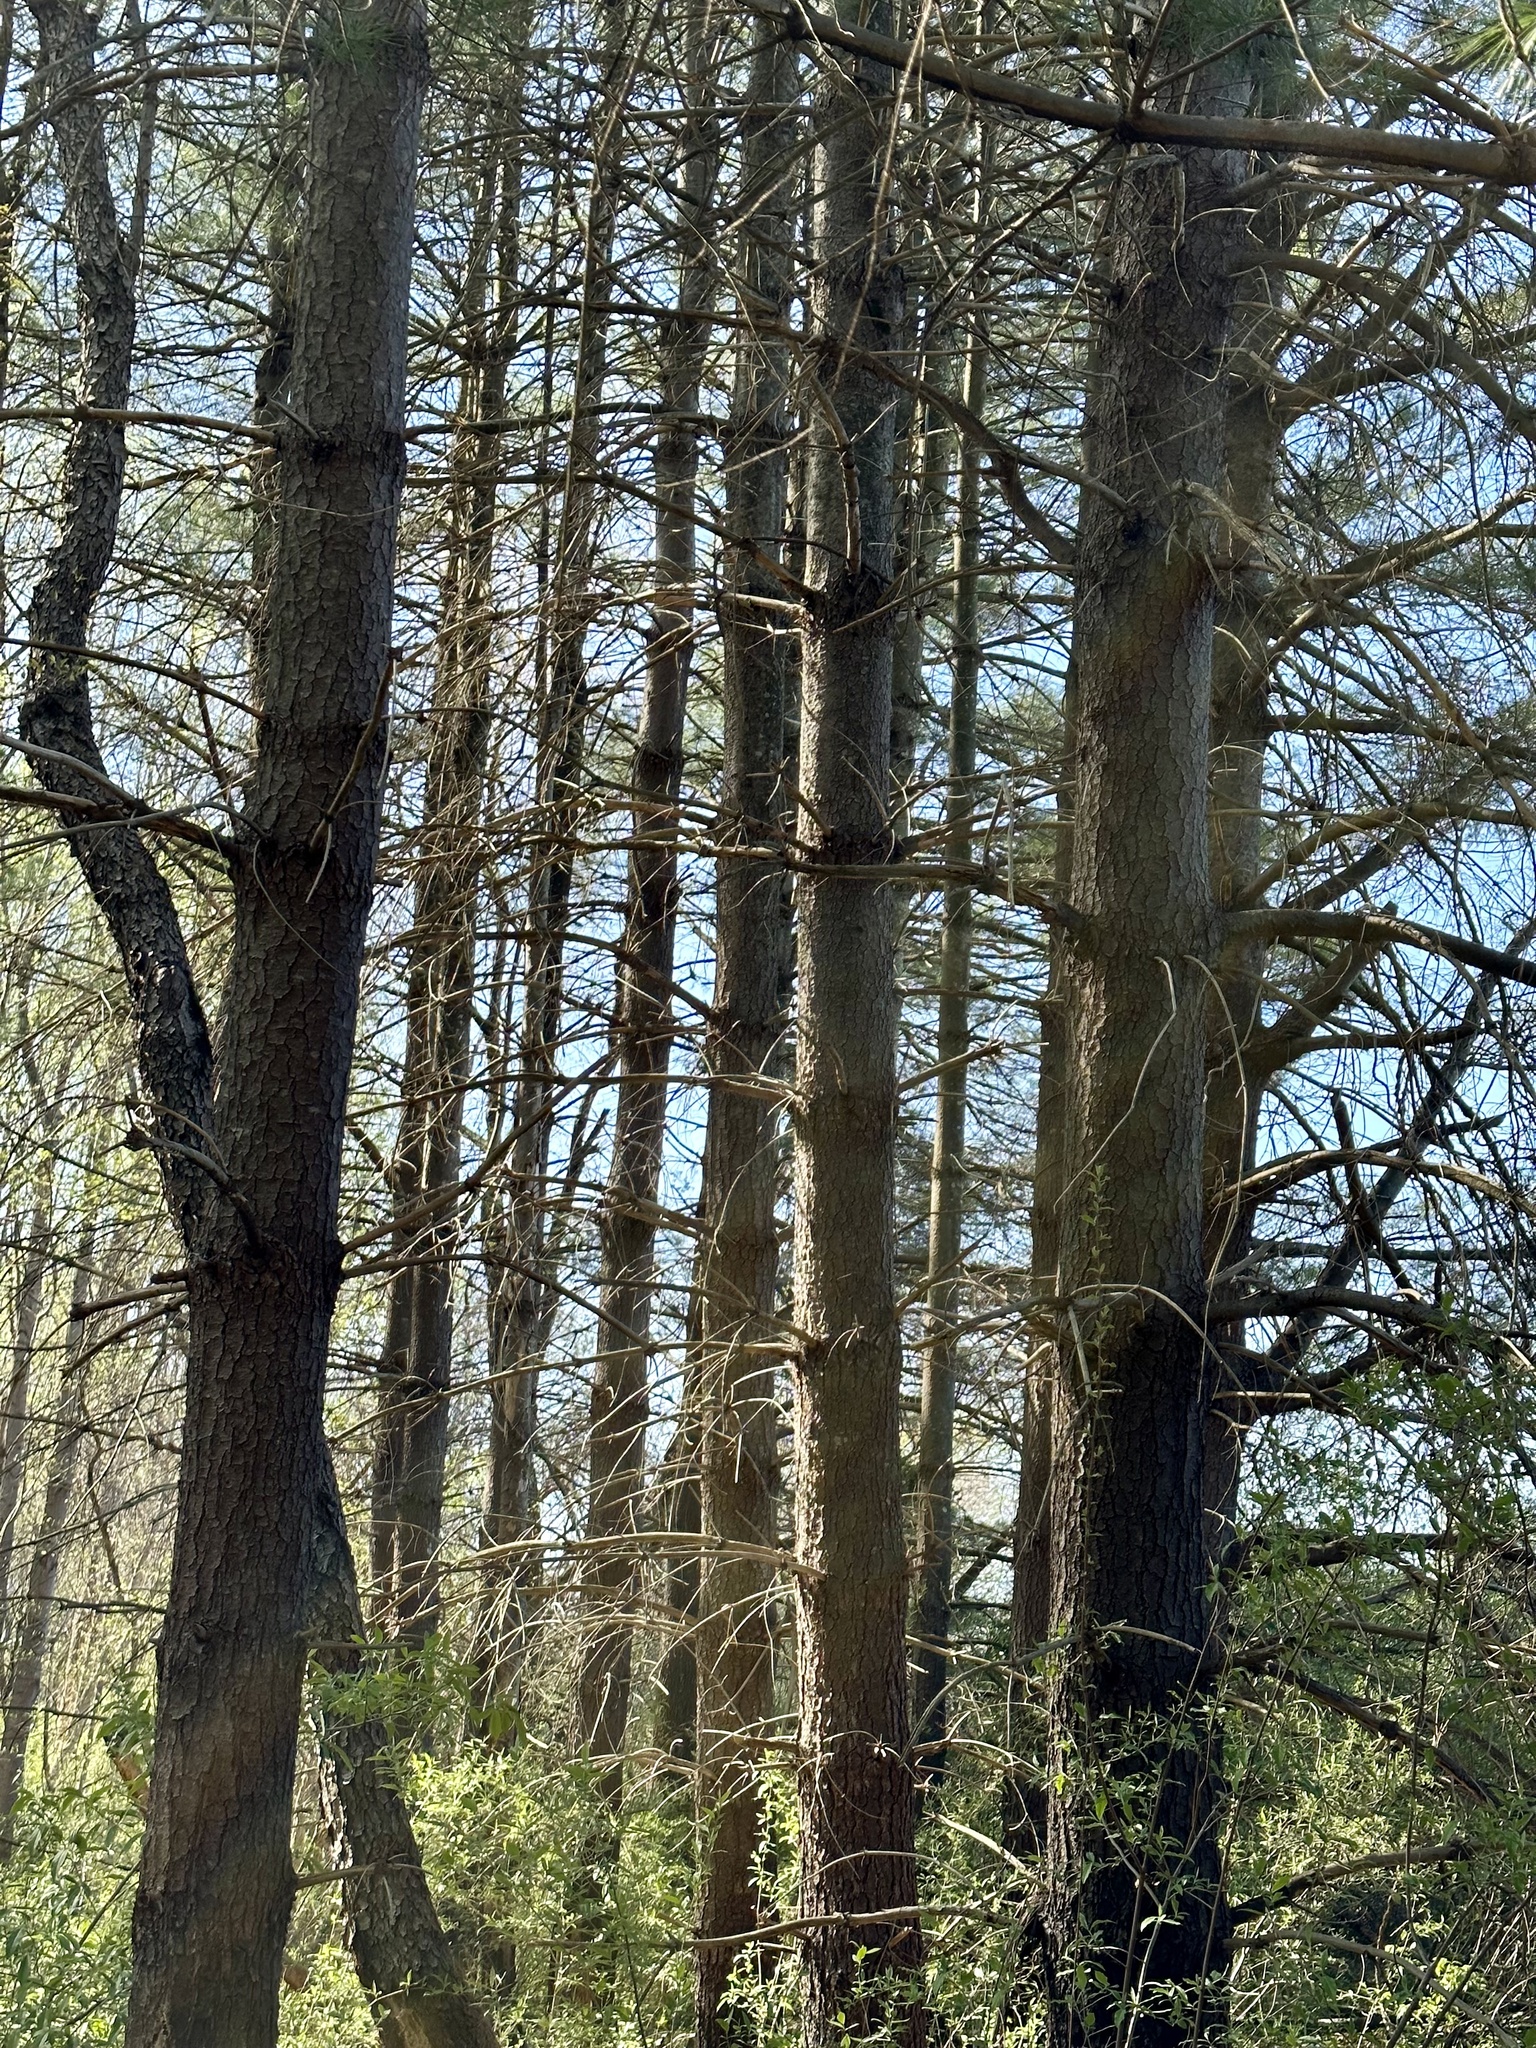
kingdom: Plantae
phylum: Tracheophyta
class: Pinopsida
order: Pinales
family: Pinaceae
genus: Pinus
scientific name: Pinus strobus
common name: Weymouth pine
